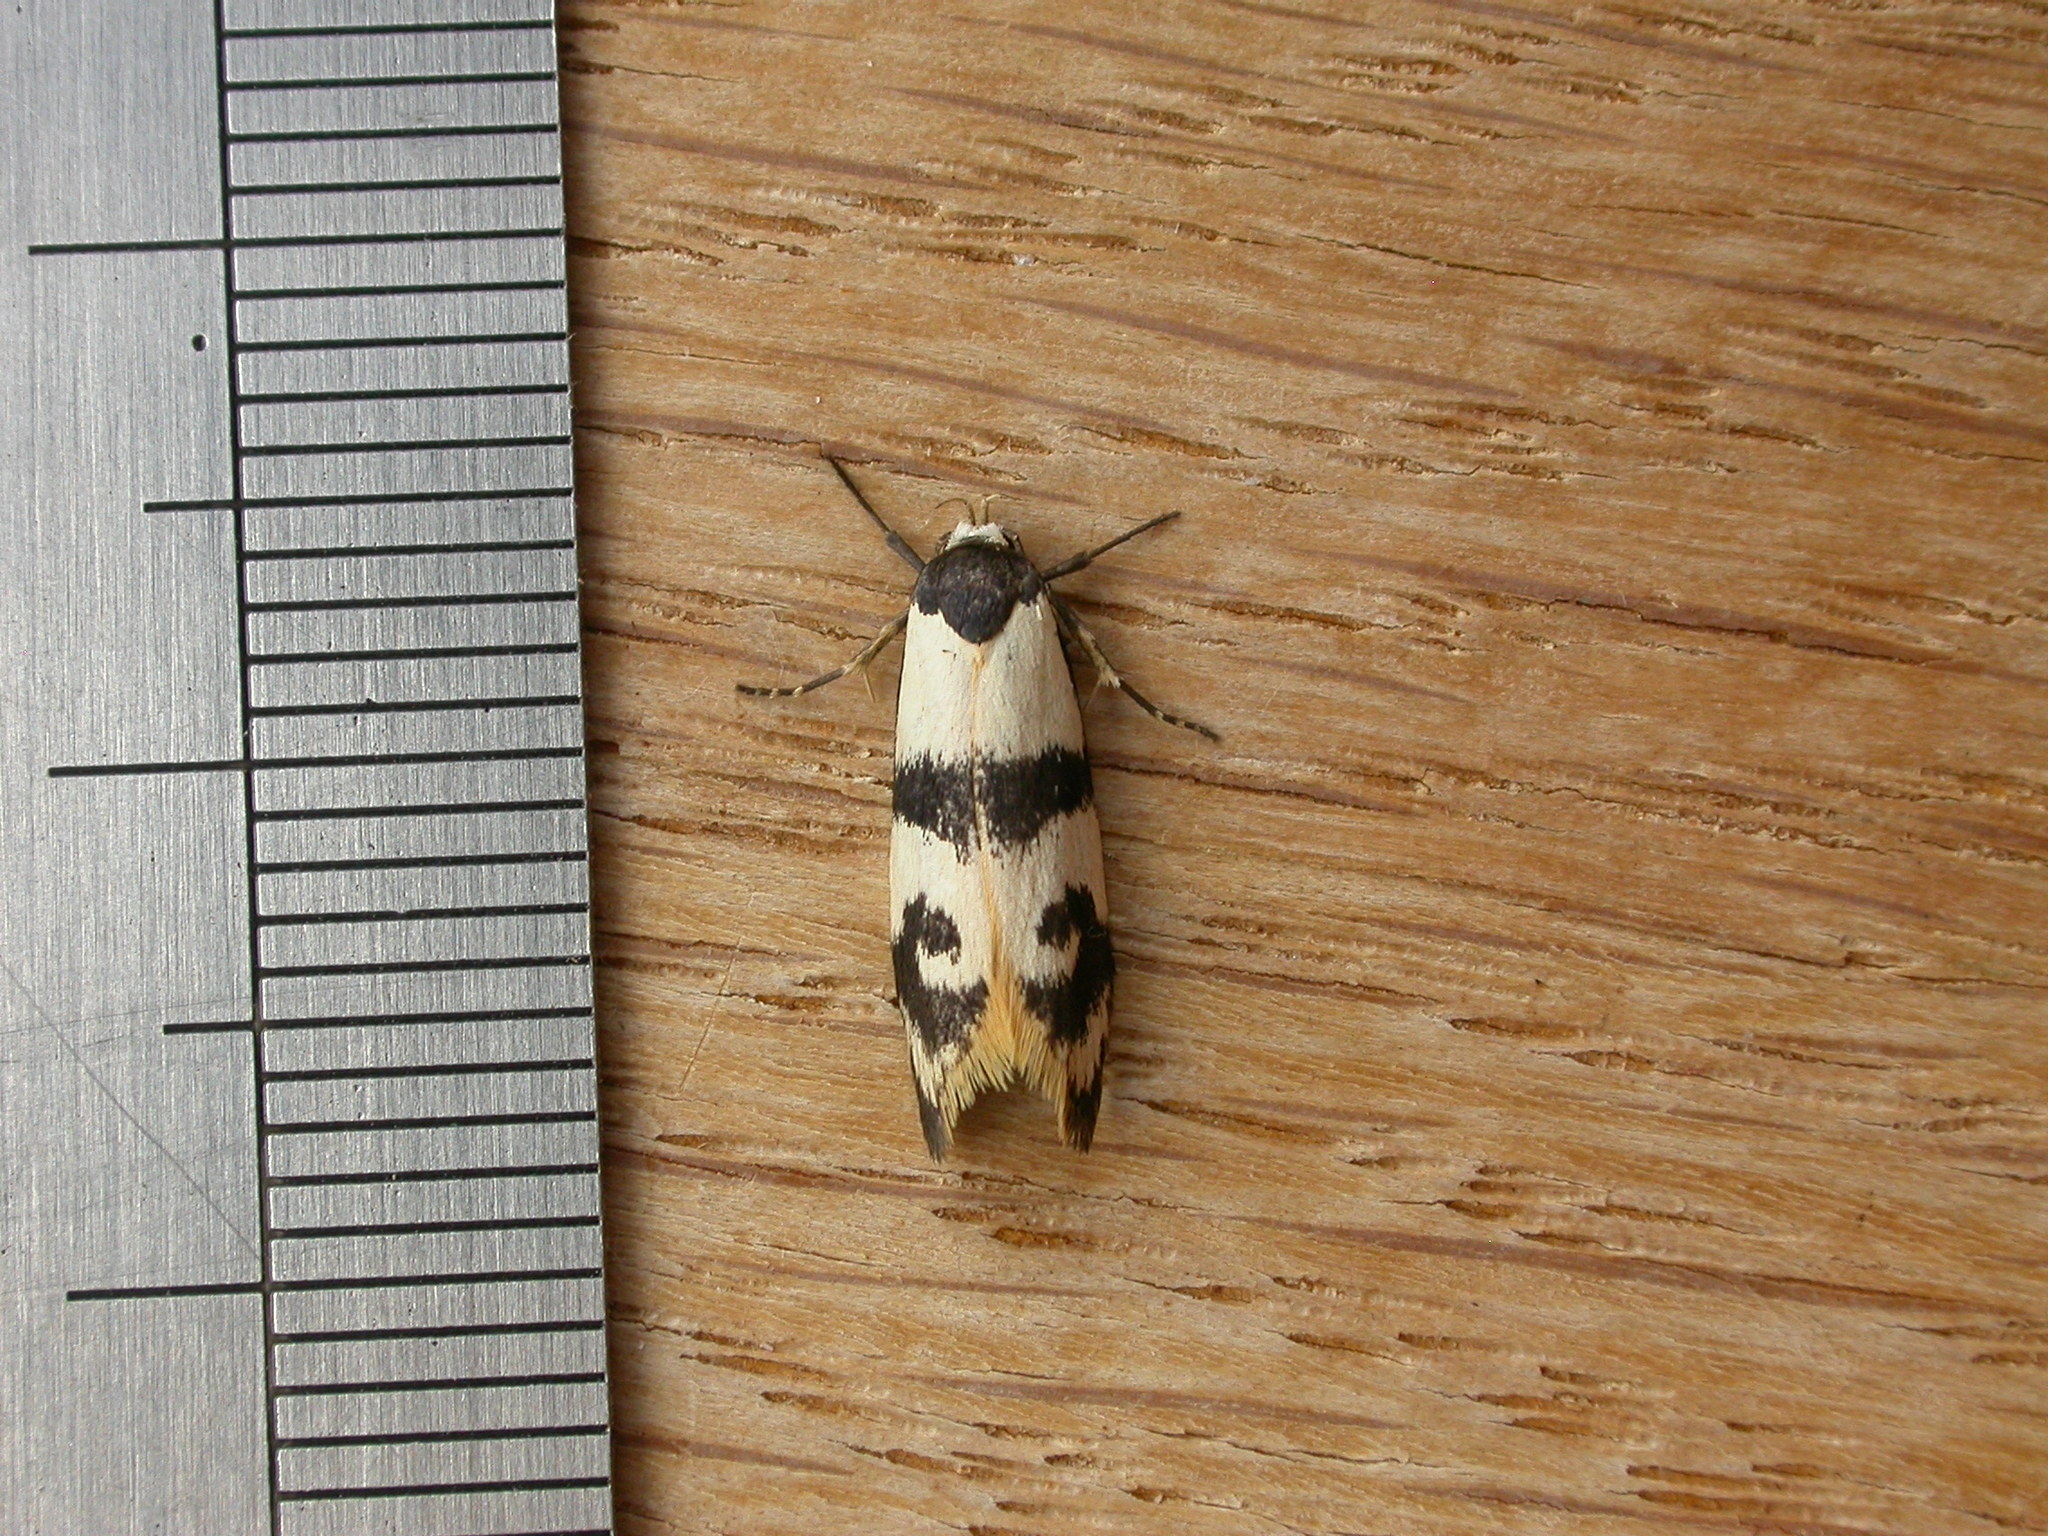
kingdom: Animalia
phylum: Arthropoda
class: Insecta
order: Lepidoptera
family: Oecophoridae
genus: Cosmaresta
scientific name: Cosmaresta eugramma
